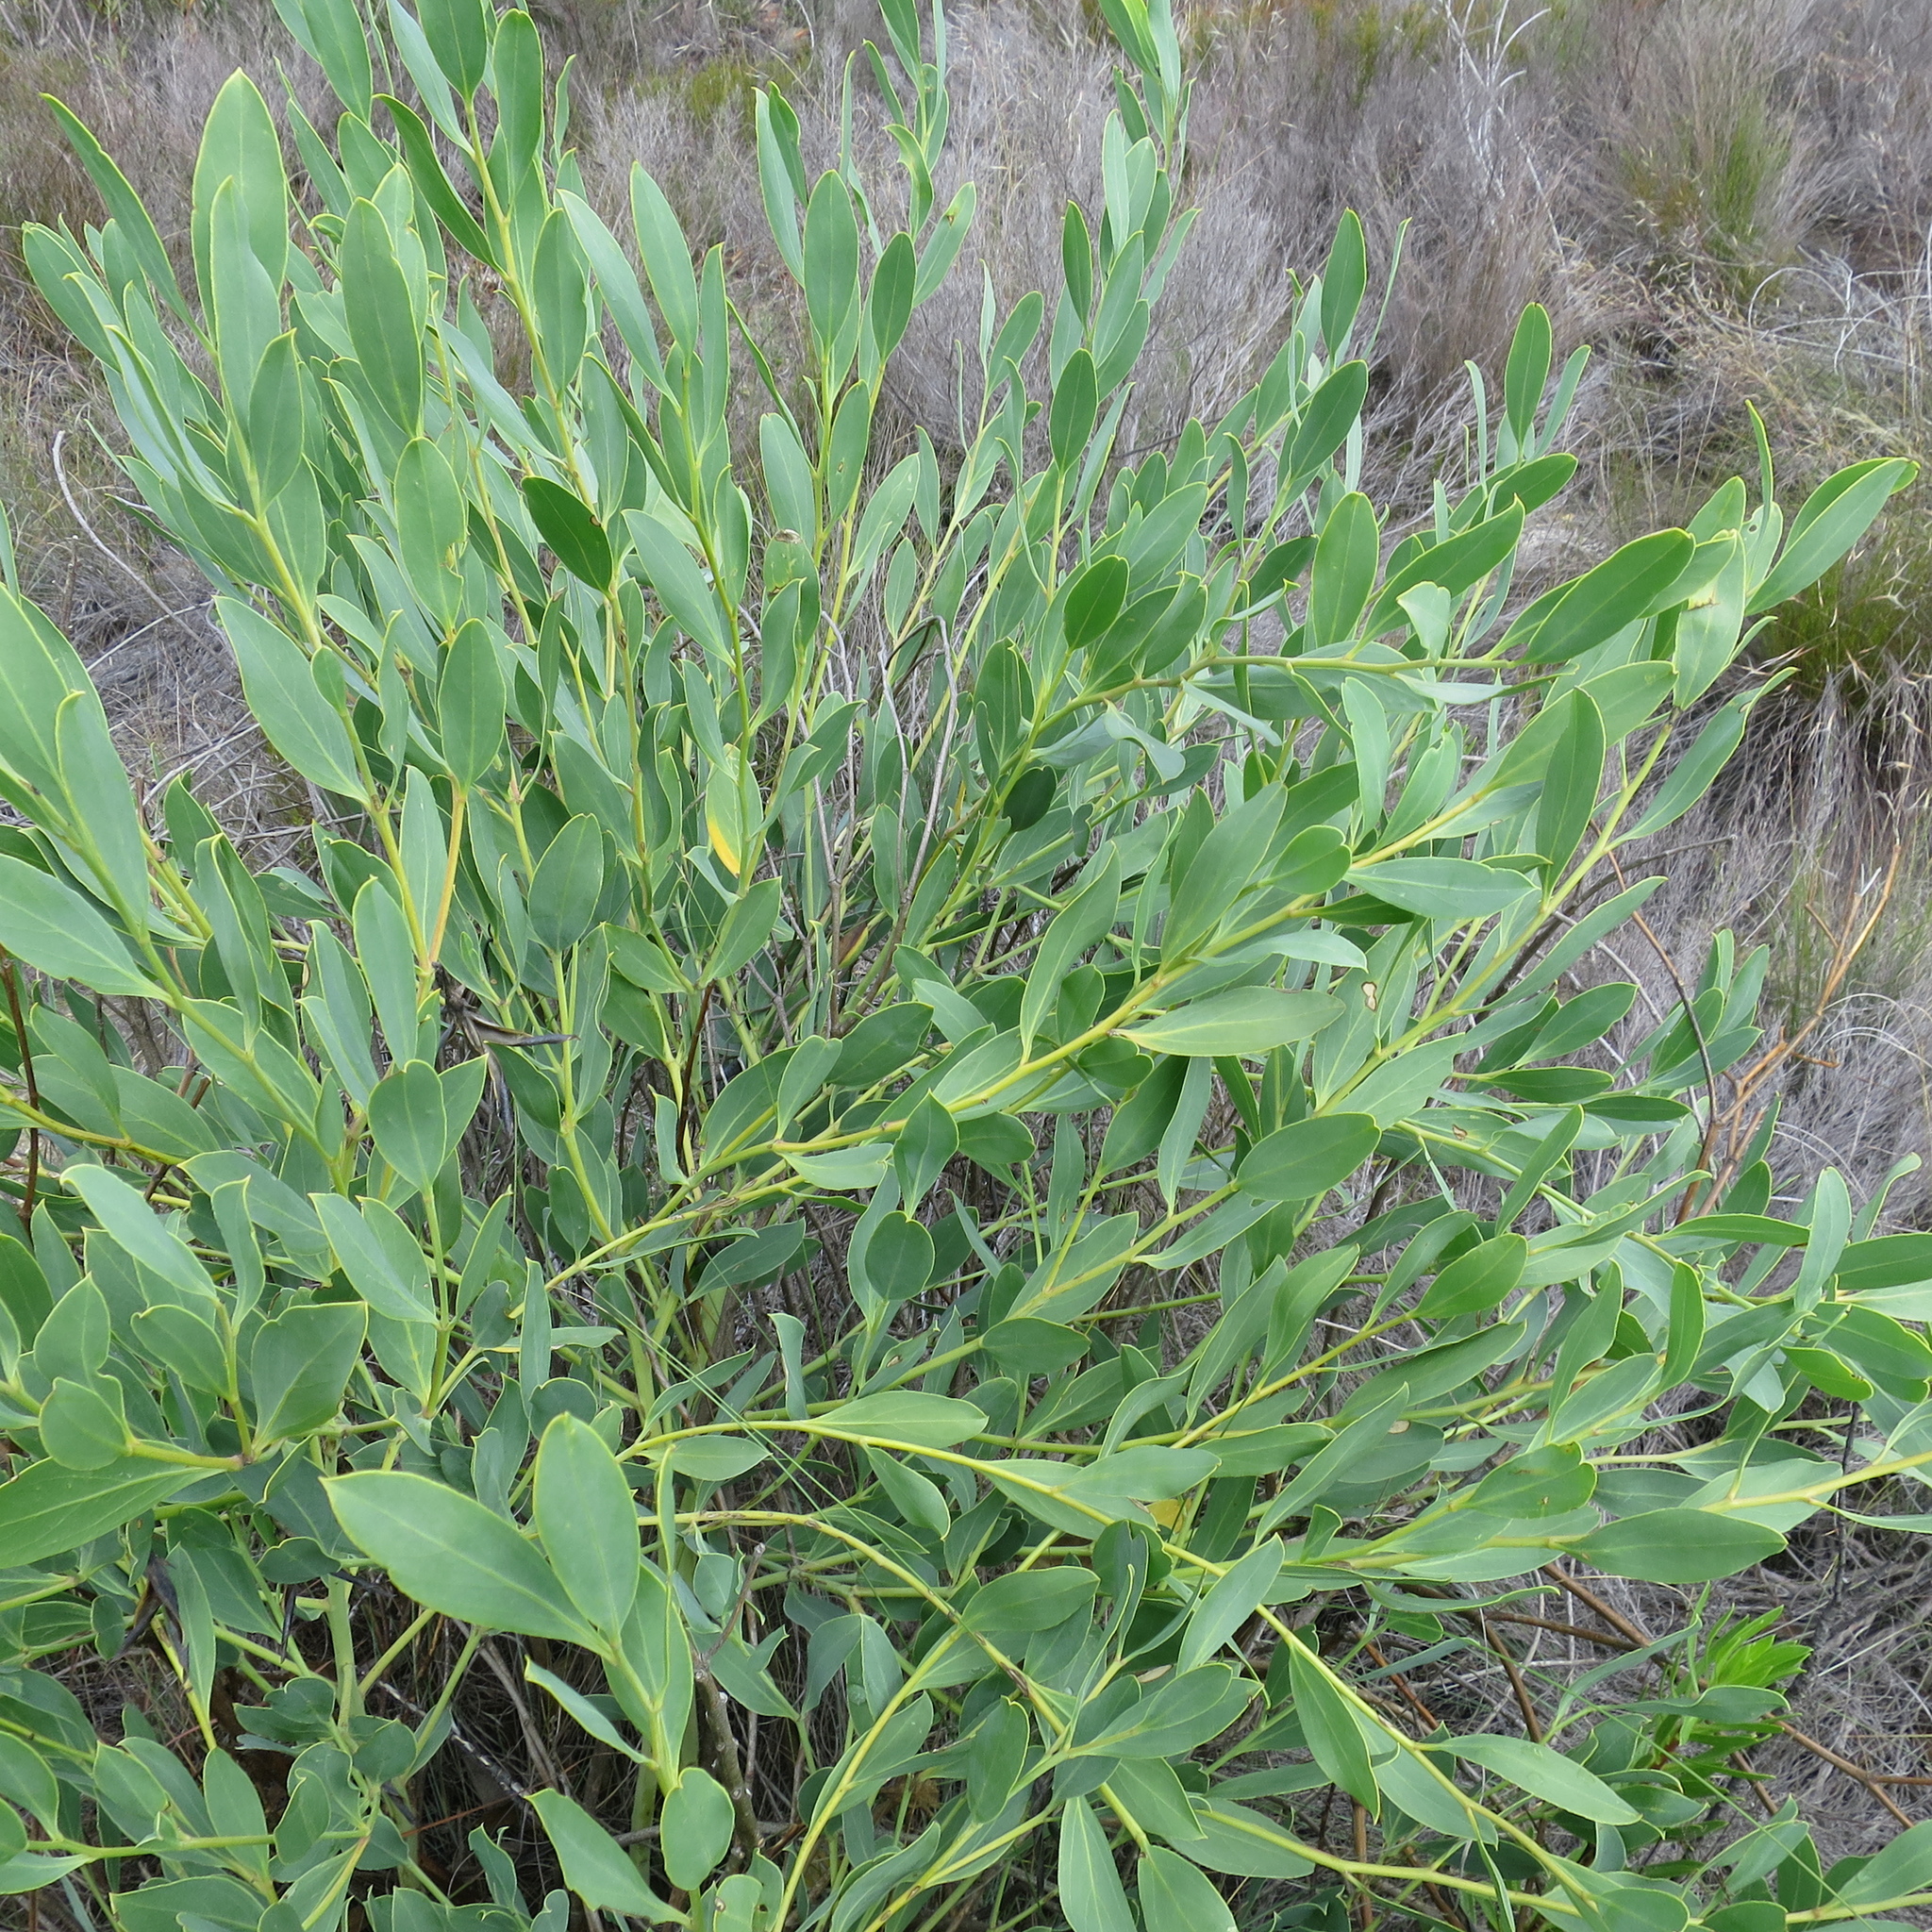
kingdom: Plantae
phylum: Tracheophyta
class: Magnoliopsida
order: Fabales
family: Fabaceae
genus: Rafnia
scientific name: Rafnia vlokii
